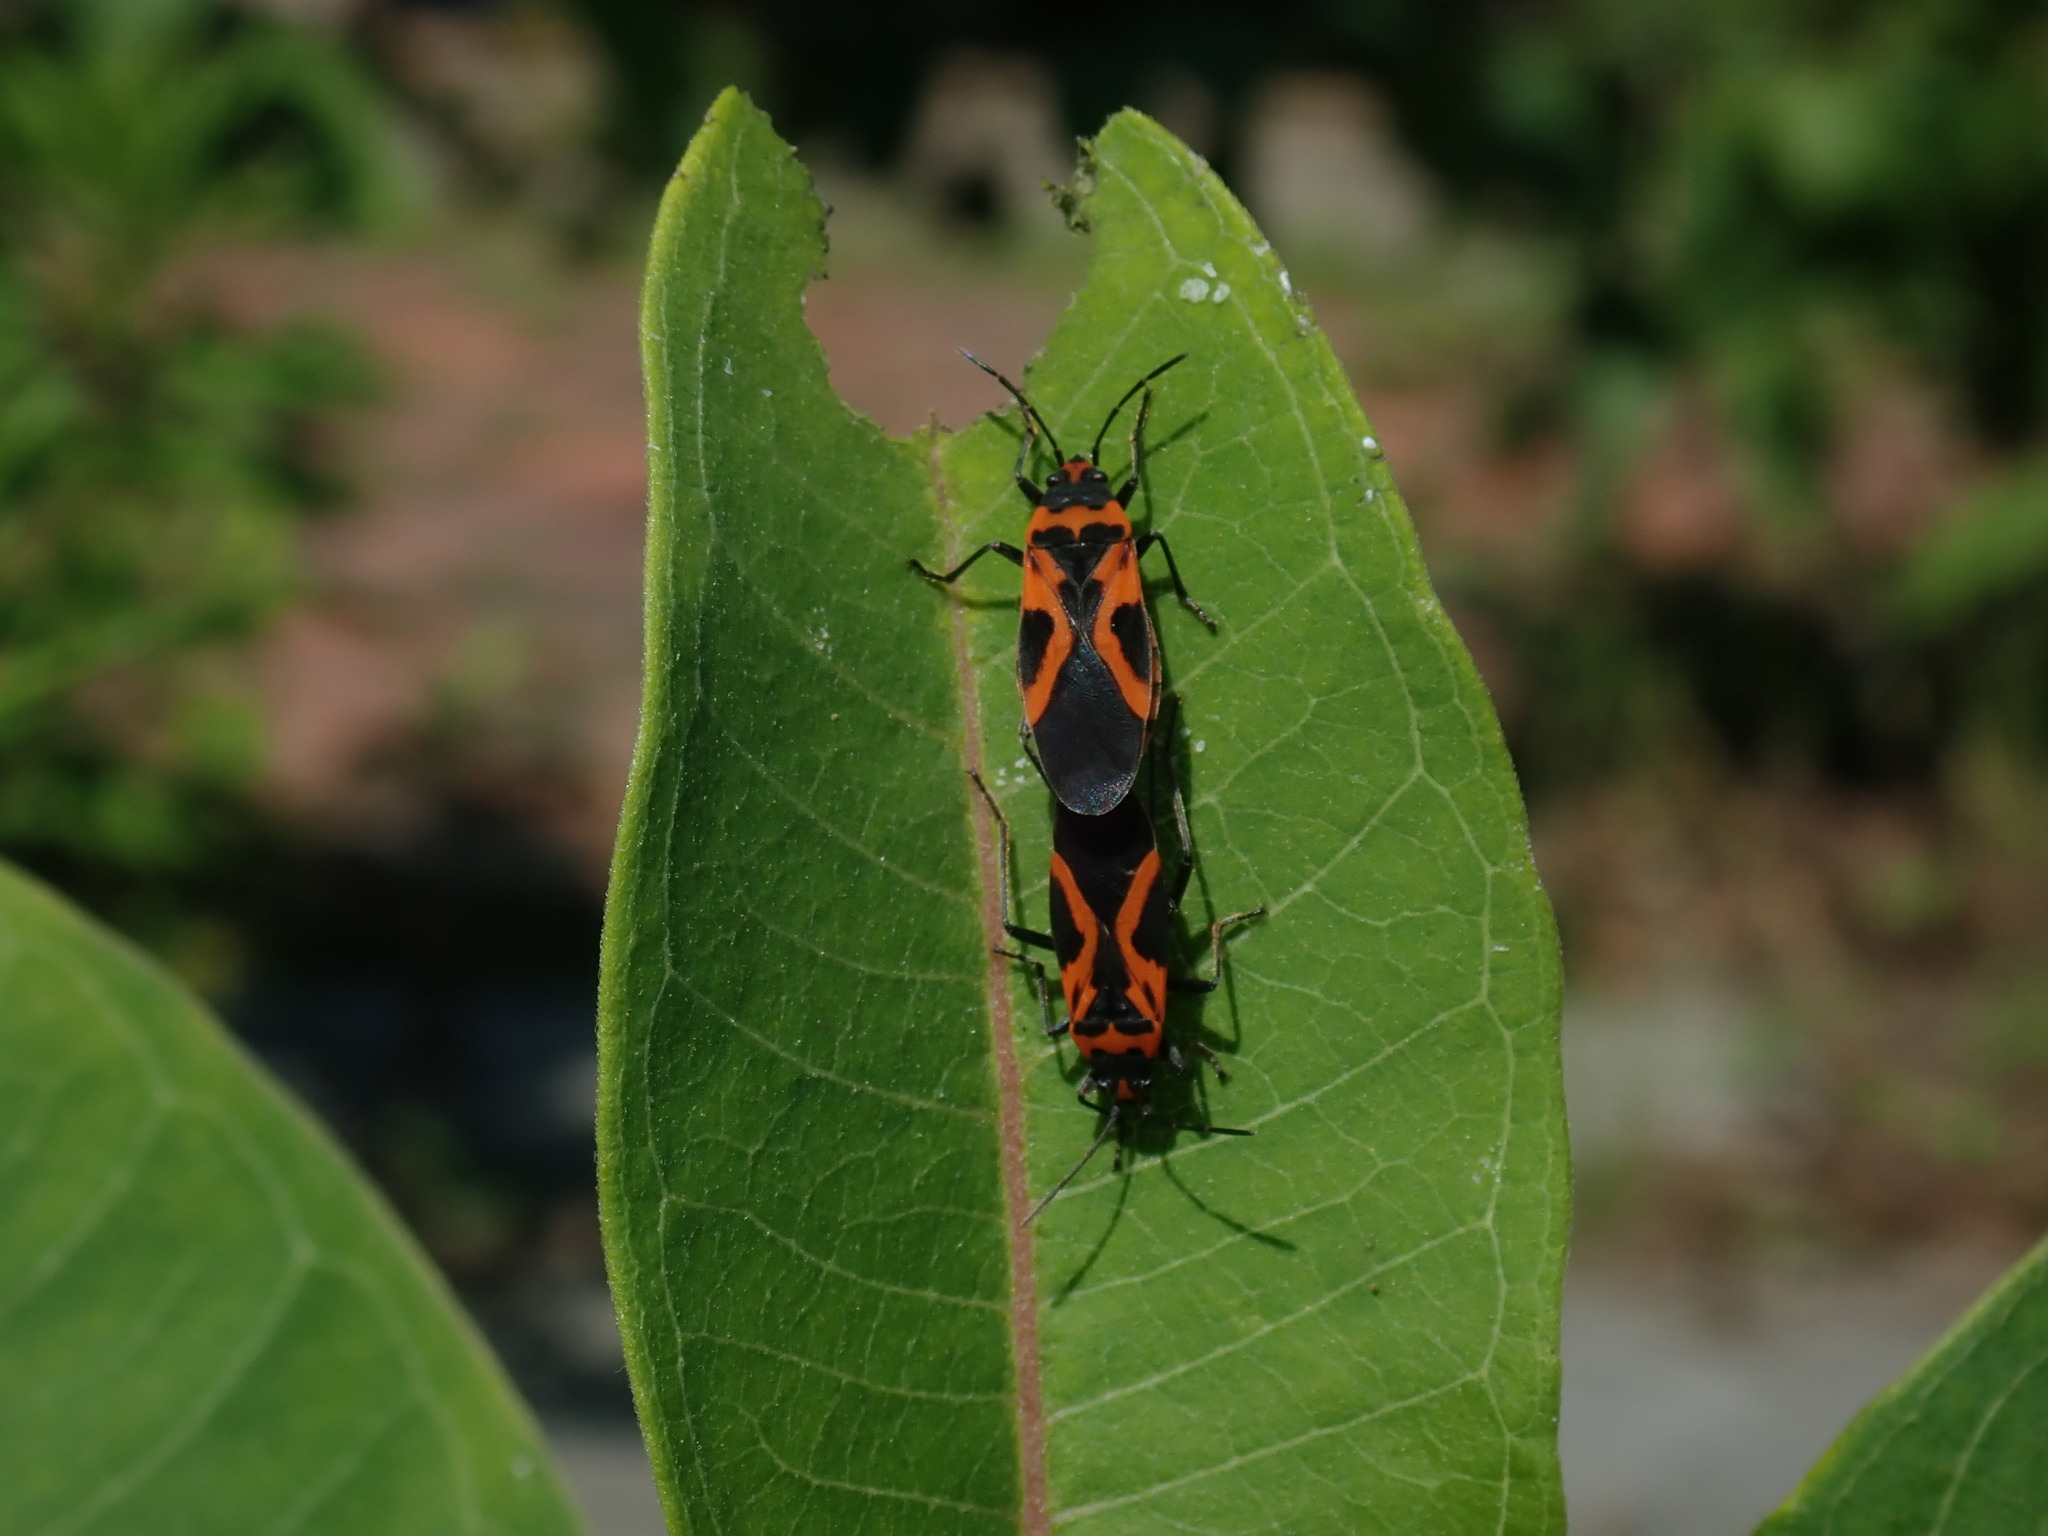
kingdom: Animalia
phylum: Arthropoda
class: Insecta
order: Hemiptera
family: Lygaeidae
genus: Lygaeus
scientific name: Lygaeus turcicus
